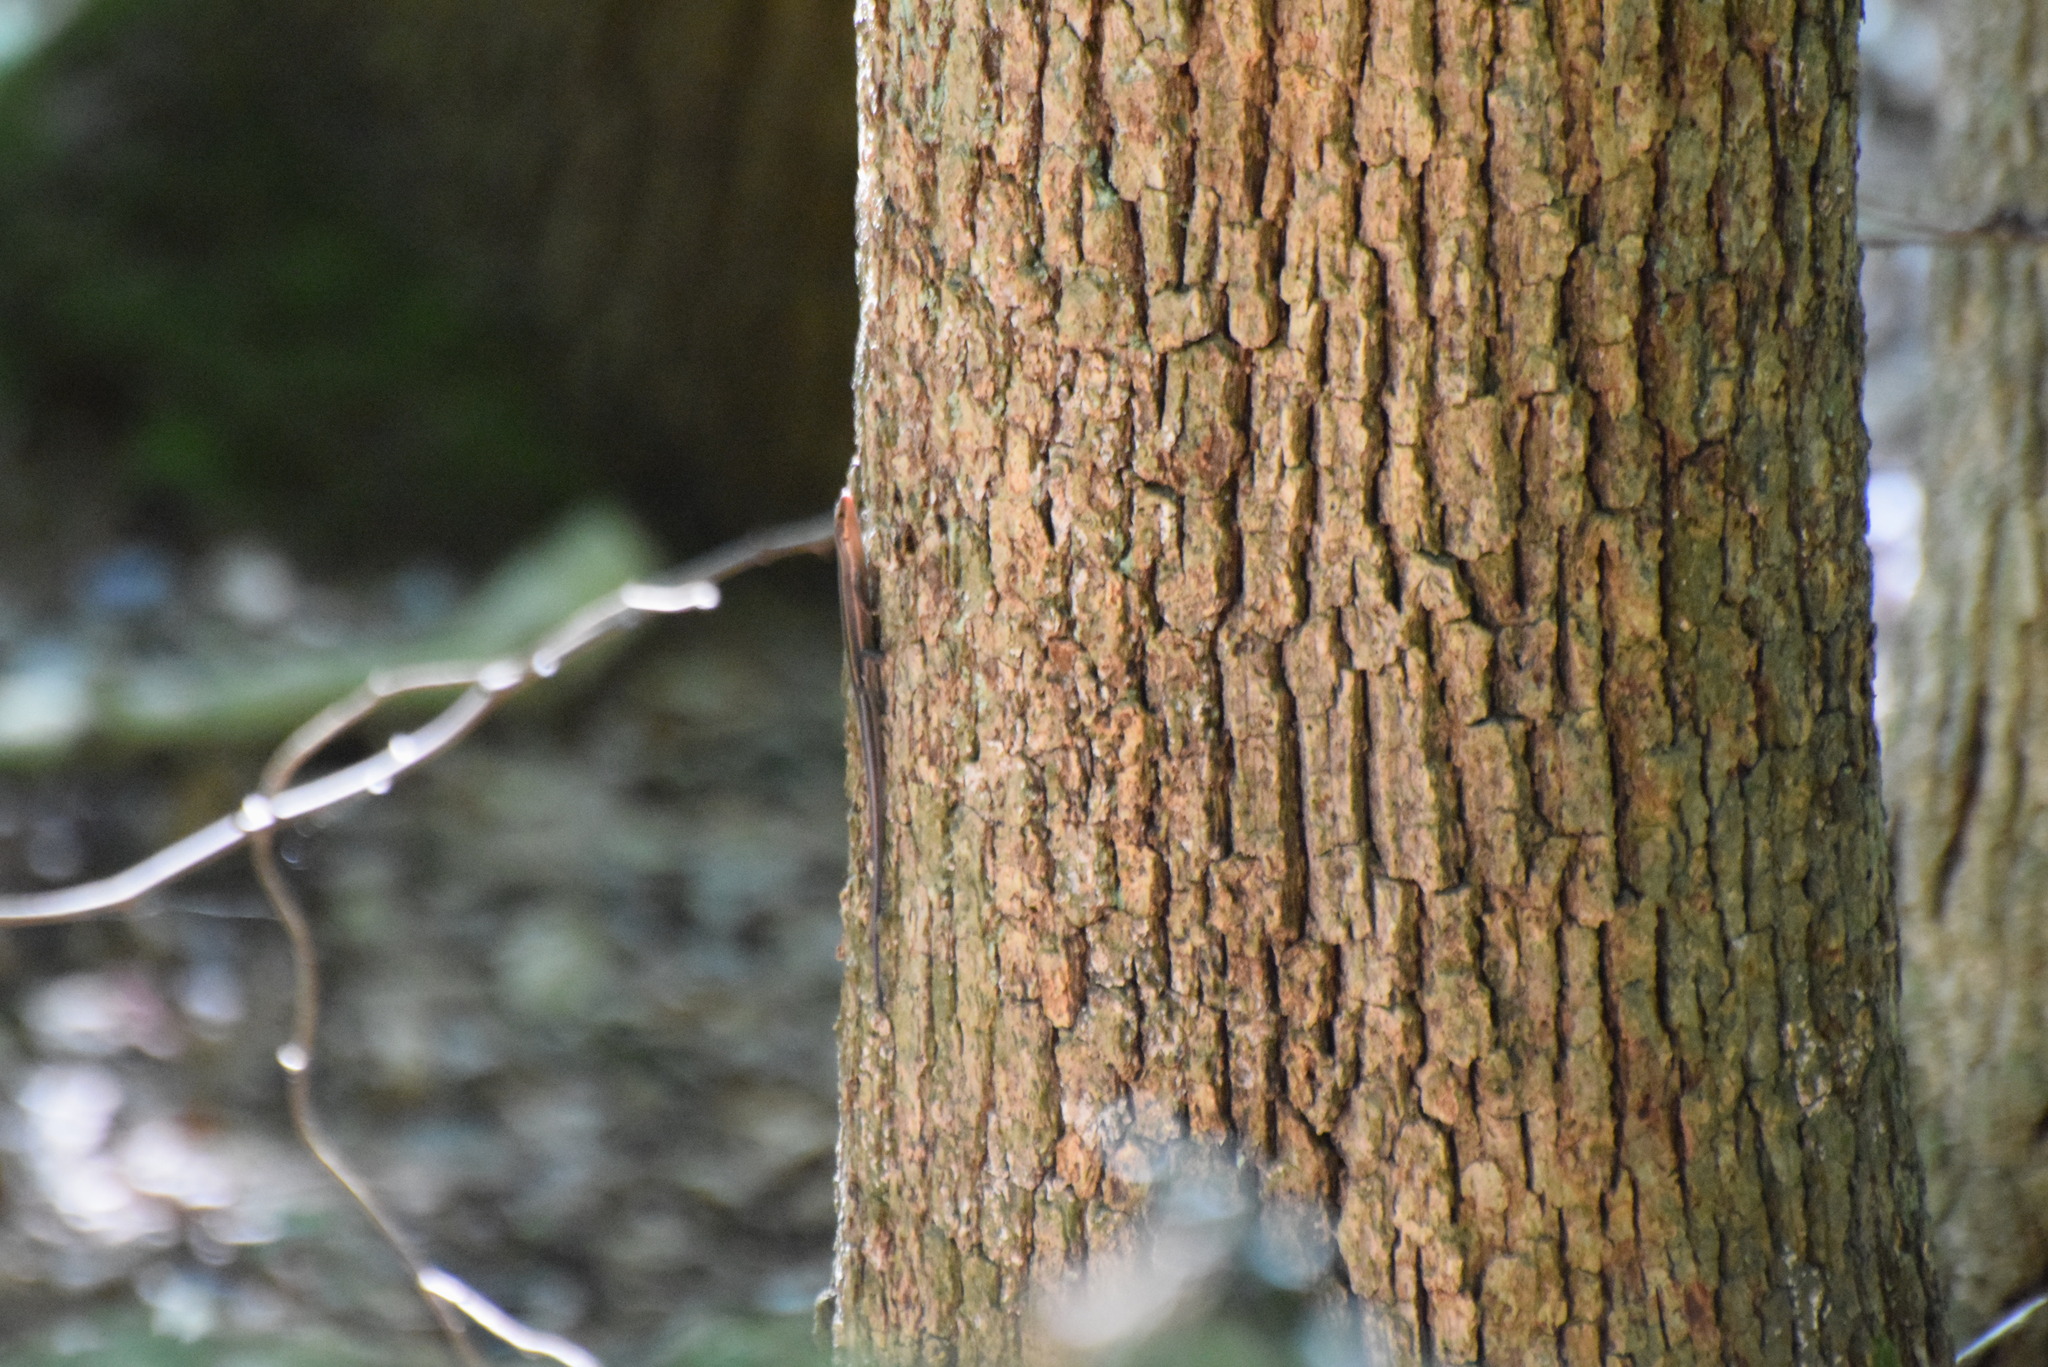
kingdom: Animalia
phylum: Chordata
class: Squamata
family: Scincidae
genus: Plestiodon
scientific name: Plestiodon fasciatus
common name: Five-lined skink
